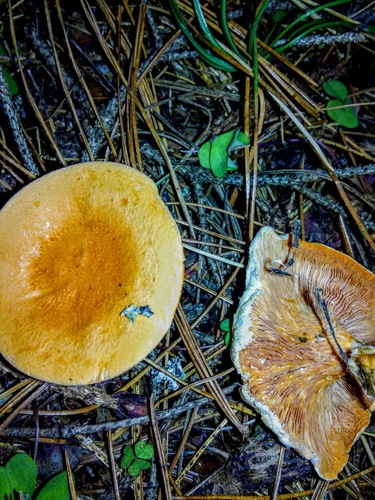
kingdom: Fungi
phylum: Basidiomycota
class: Agaricomycetes
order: Boletales
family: Hygrophoropsidaceae
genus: Hygrophoropsis
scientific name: Hygrophoropsis aurantiaca
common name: False chanterelle
